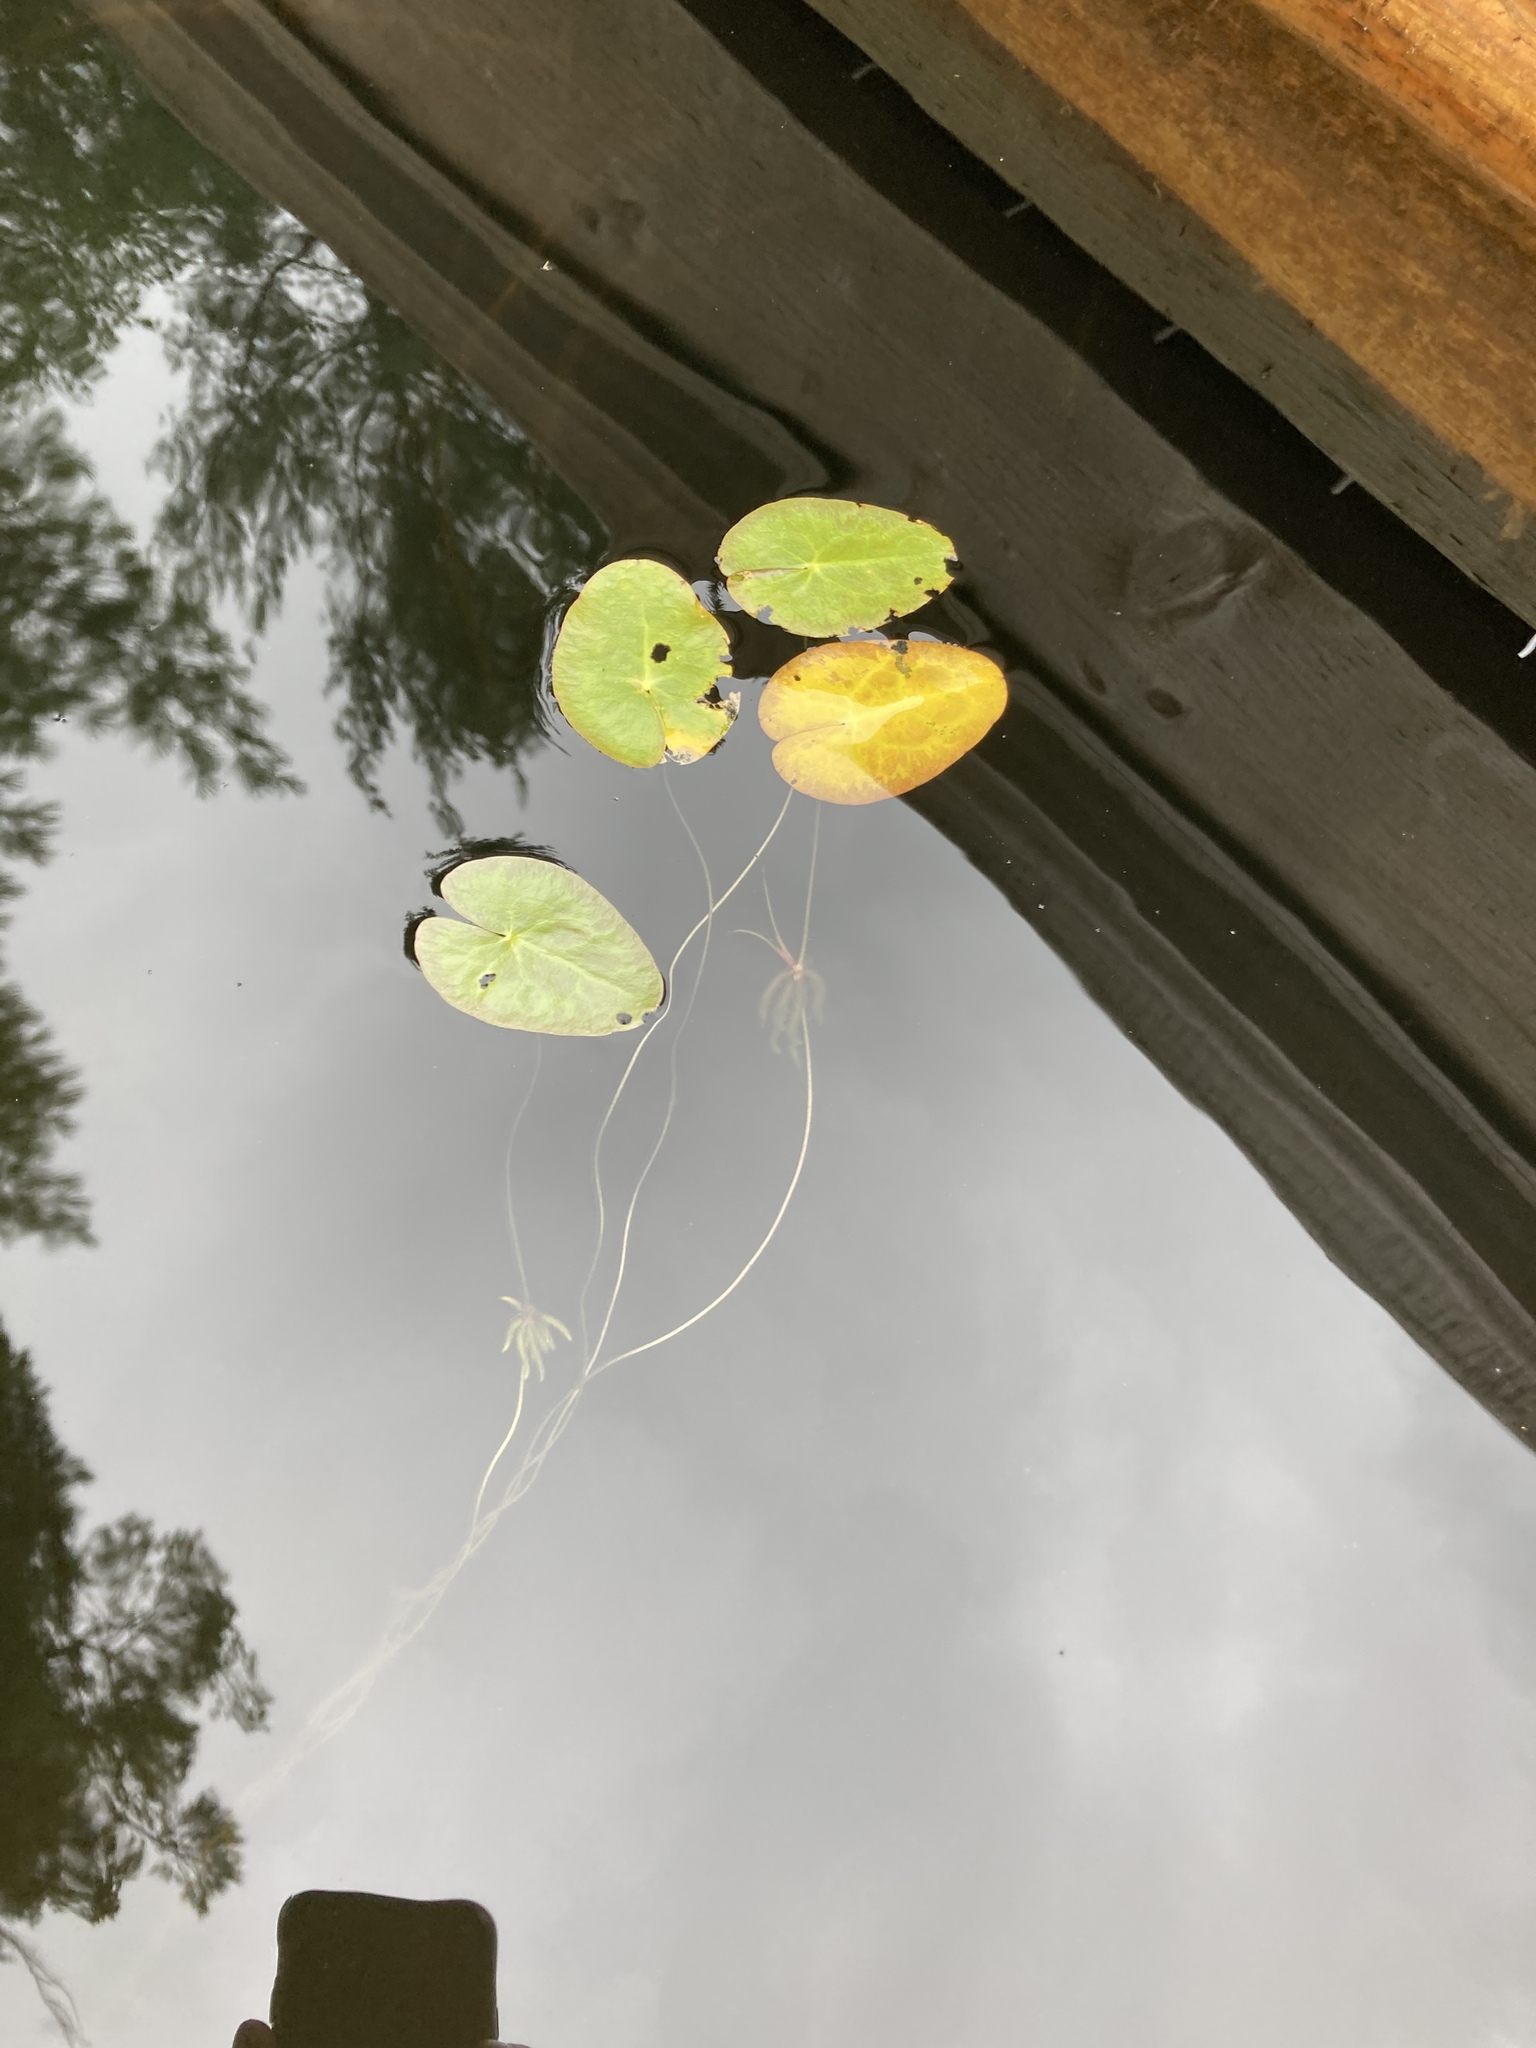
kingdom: Plantae
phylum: Tracheophyta
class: Magnoliopsida
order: Asterales
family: Menyanthaceae
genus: Nymphoides
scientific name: Nymphoides cordata
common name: Eight-angled floatingheart
